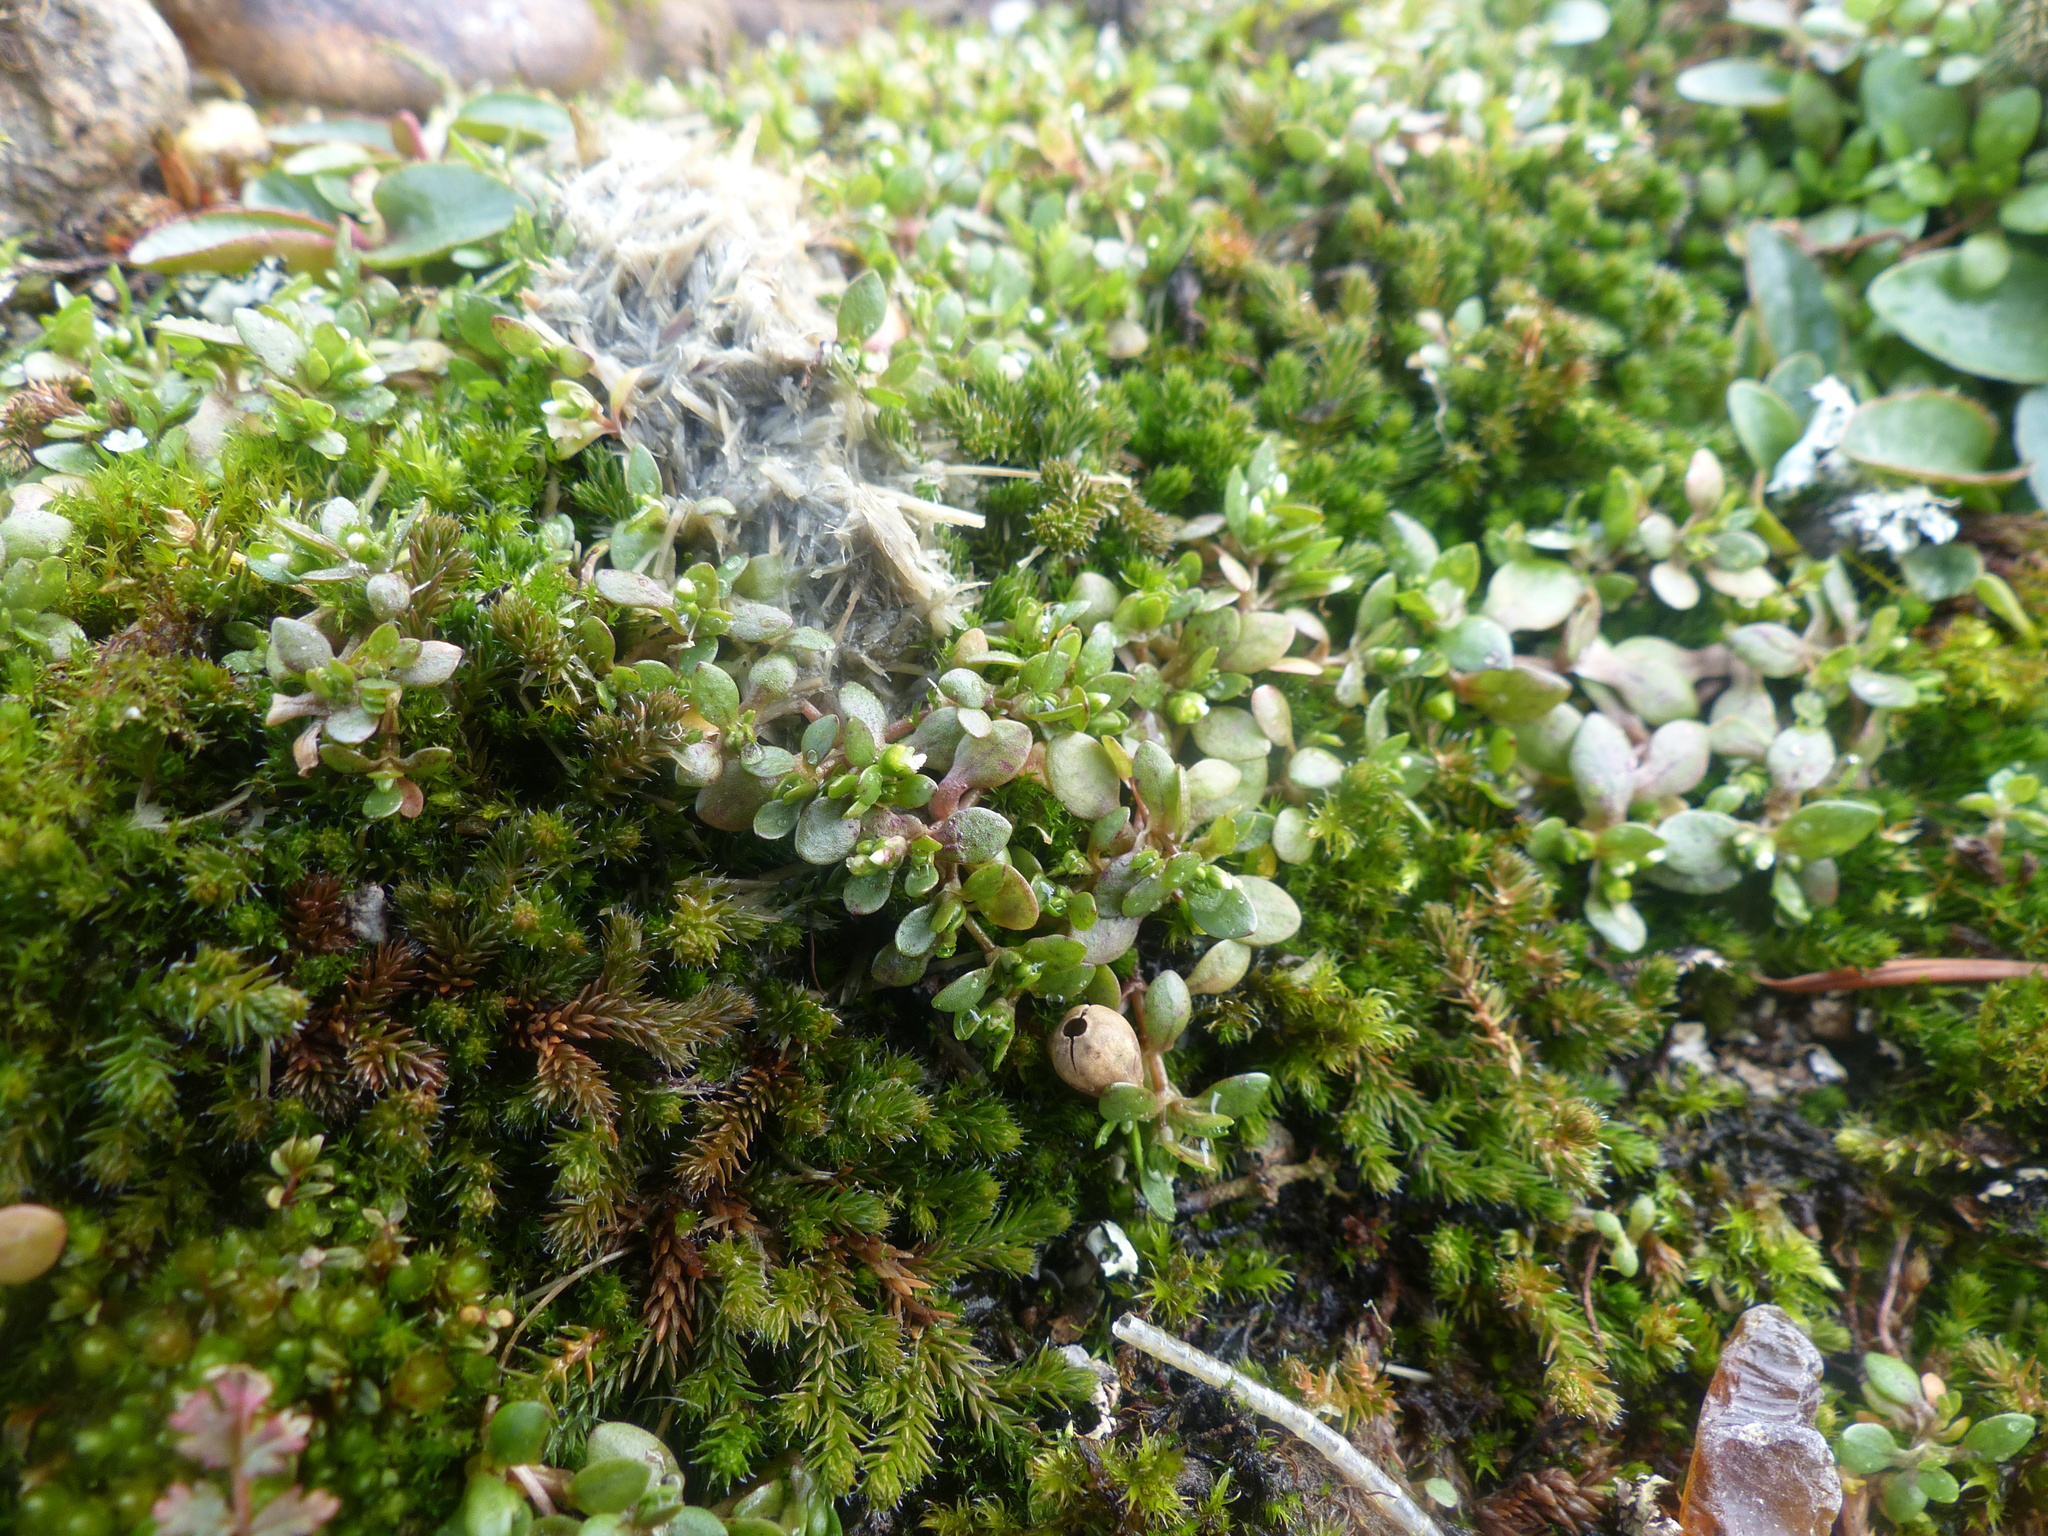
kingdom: Plantae
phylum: Tracheophyta
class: Magnoliopsida
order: Caryophyllales
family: Montiaceae
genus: Montia
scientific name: Montia fontana
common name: Blinks
